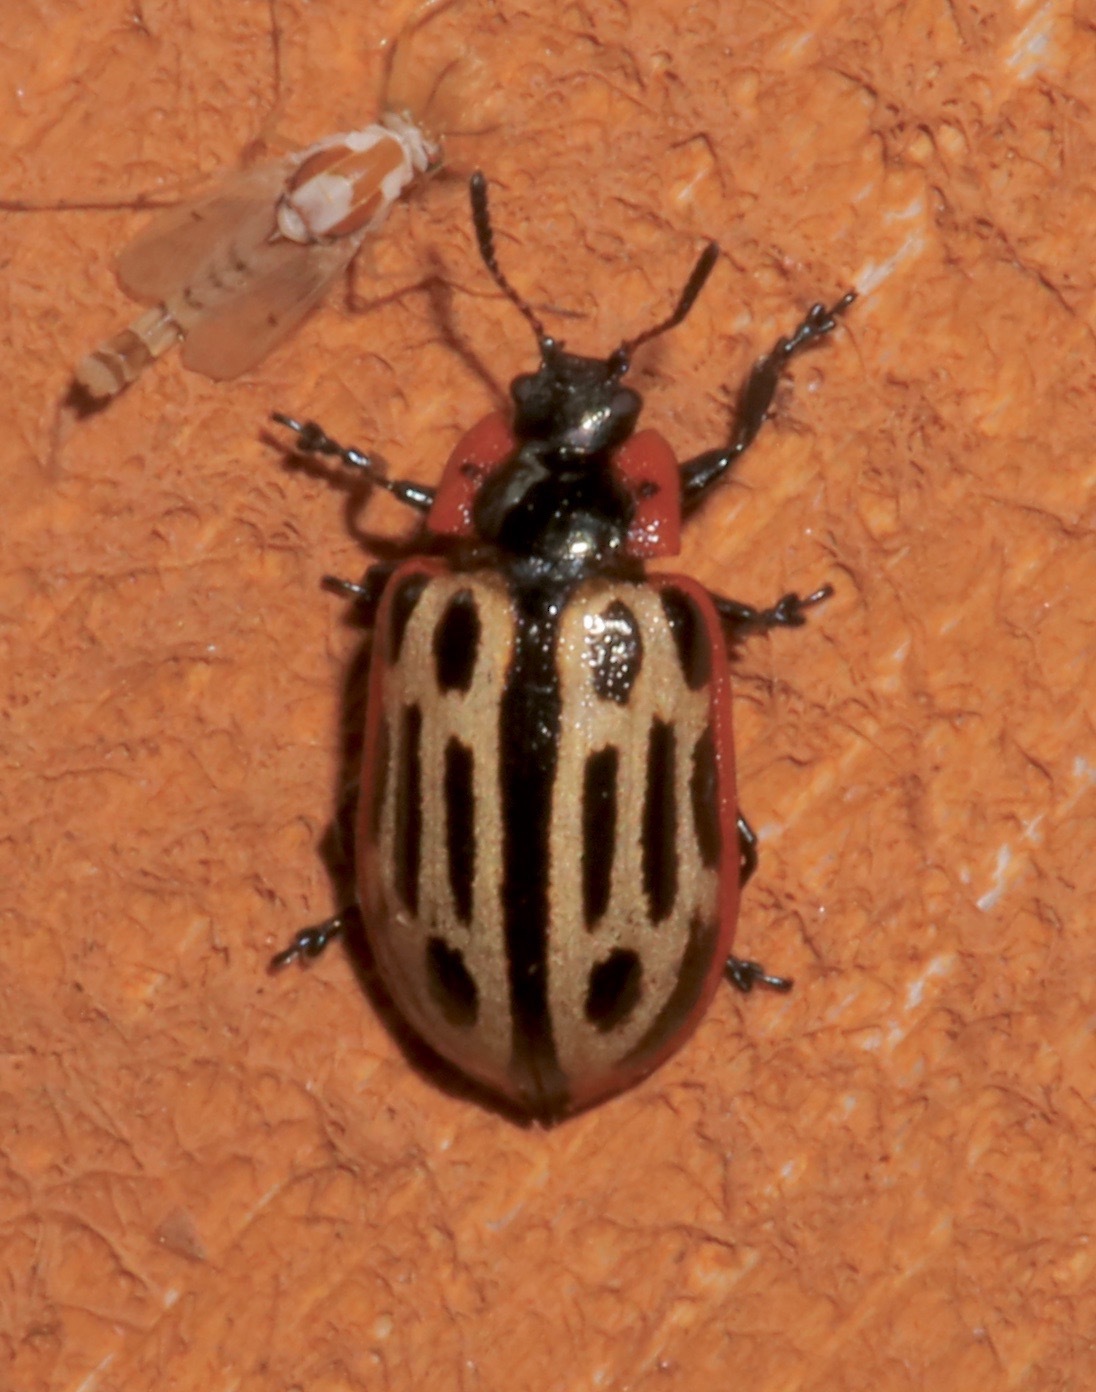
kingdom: Animalia
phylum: Arthropoda
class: Insecta
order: Coleoptera
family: Chrysomelidae
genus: Aethiopocassis
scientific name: Aethiopocassis scripta
